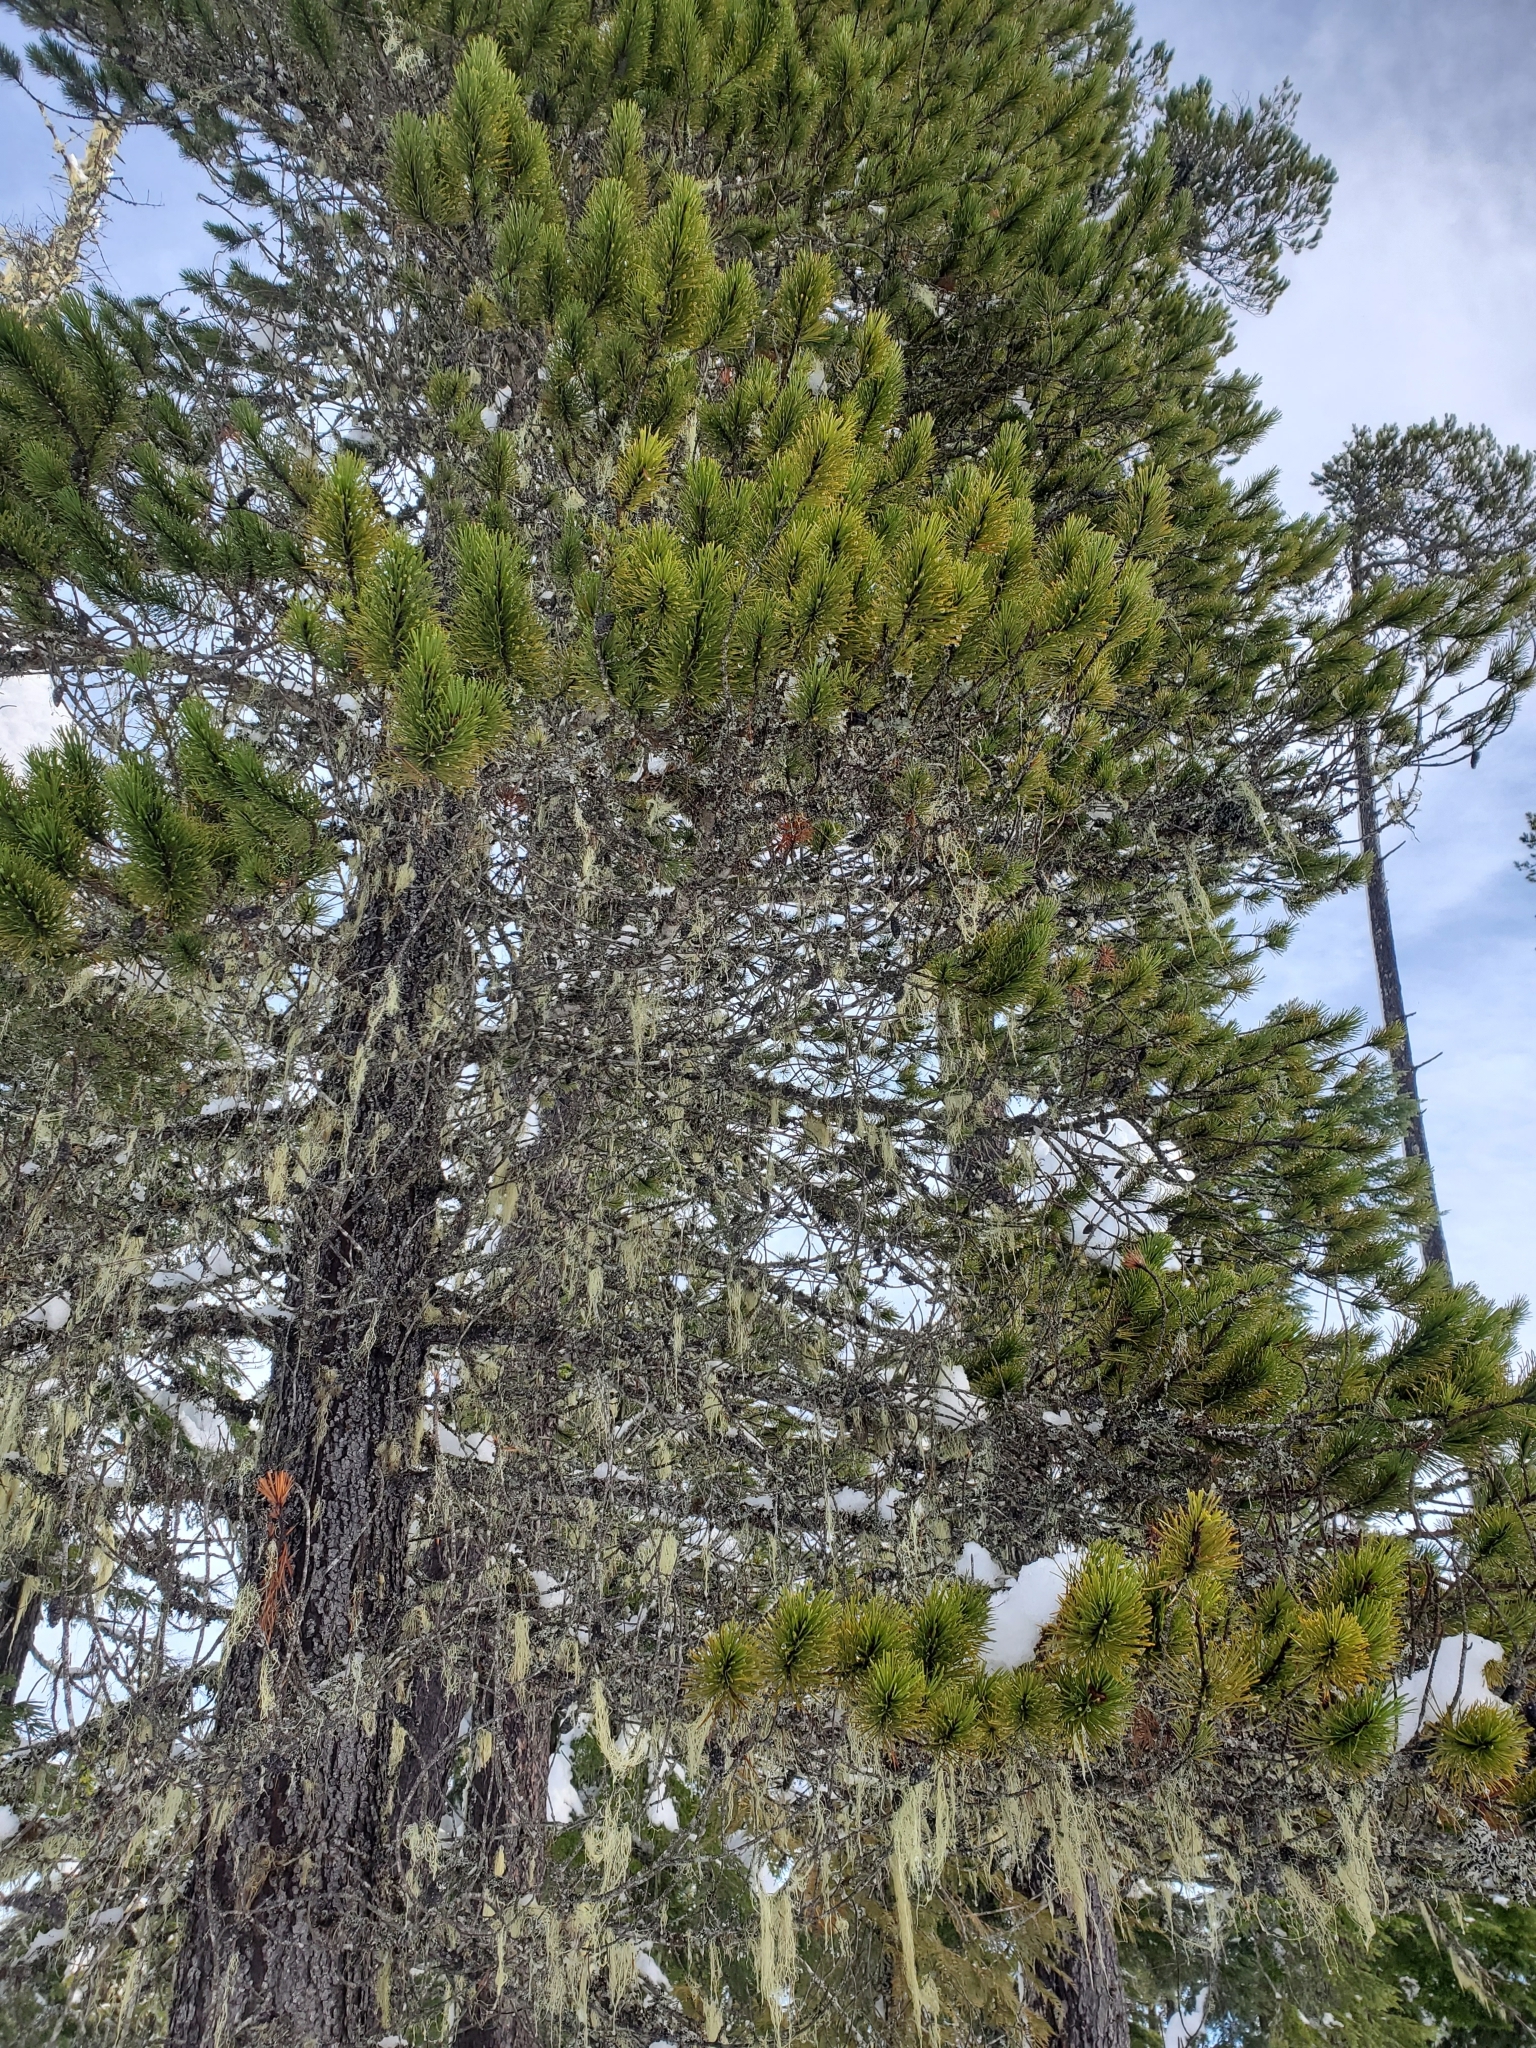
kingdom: Plantae
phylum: Tracheophyta
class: Pinopsida
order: Pinales
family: Pinaceae
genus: Pinus
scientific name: Pinus contorta
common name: Lodgepole pine
